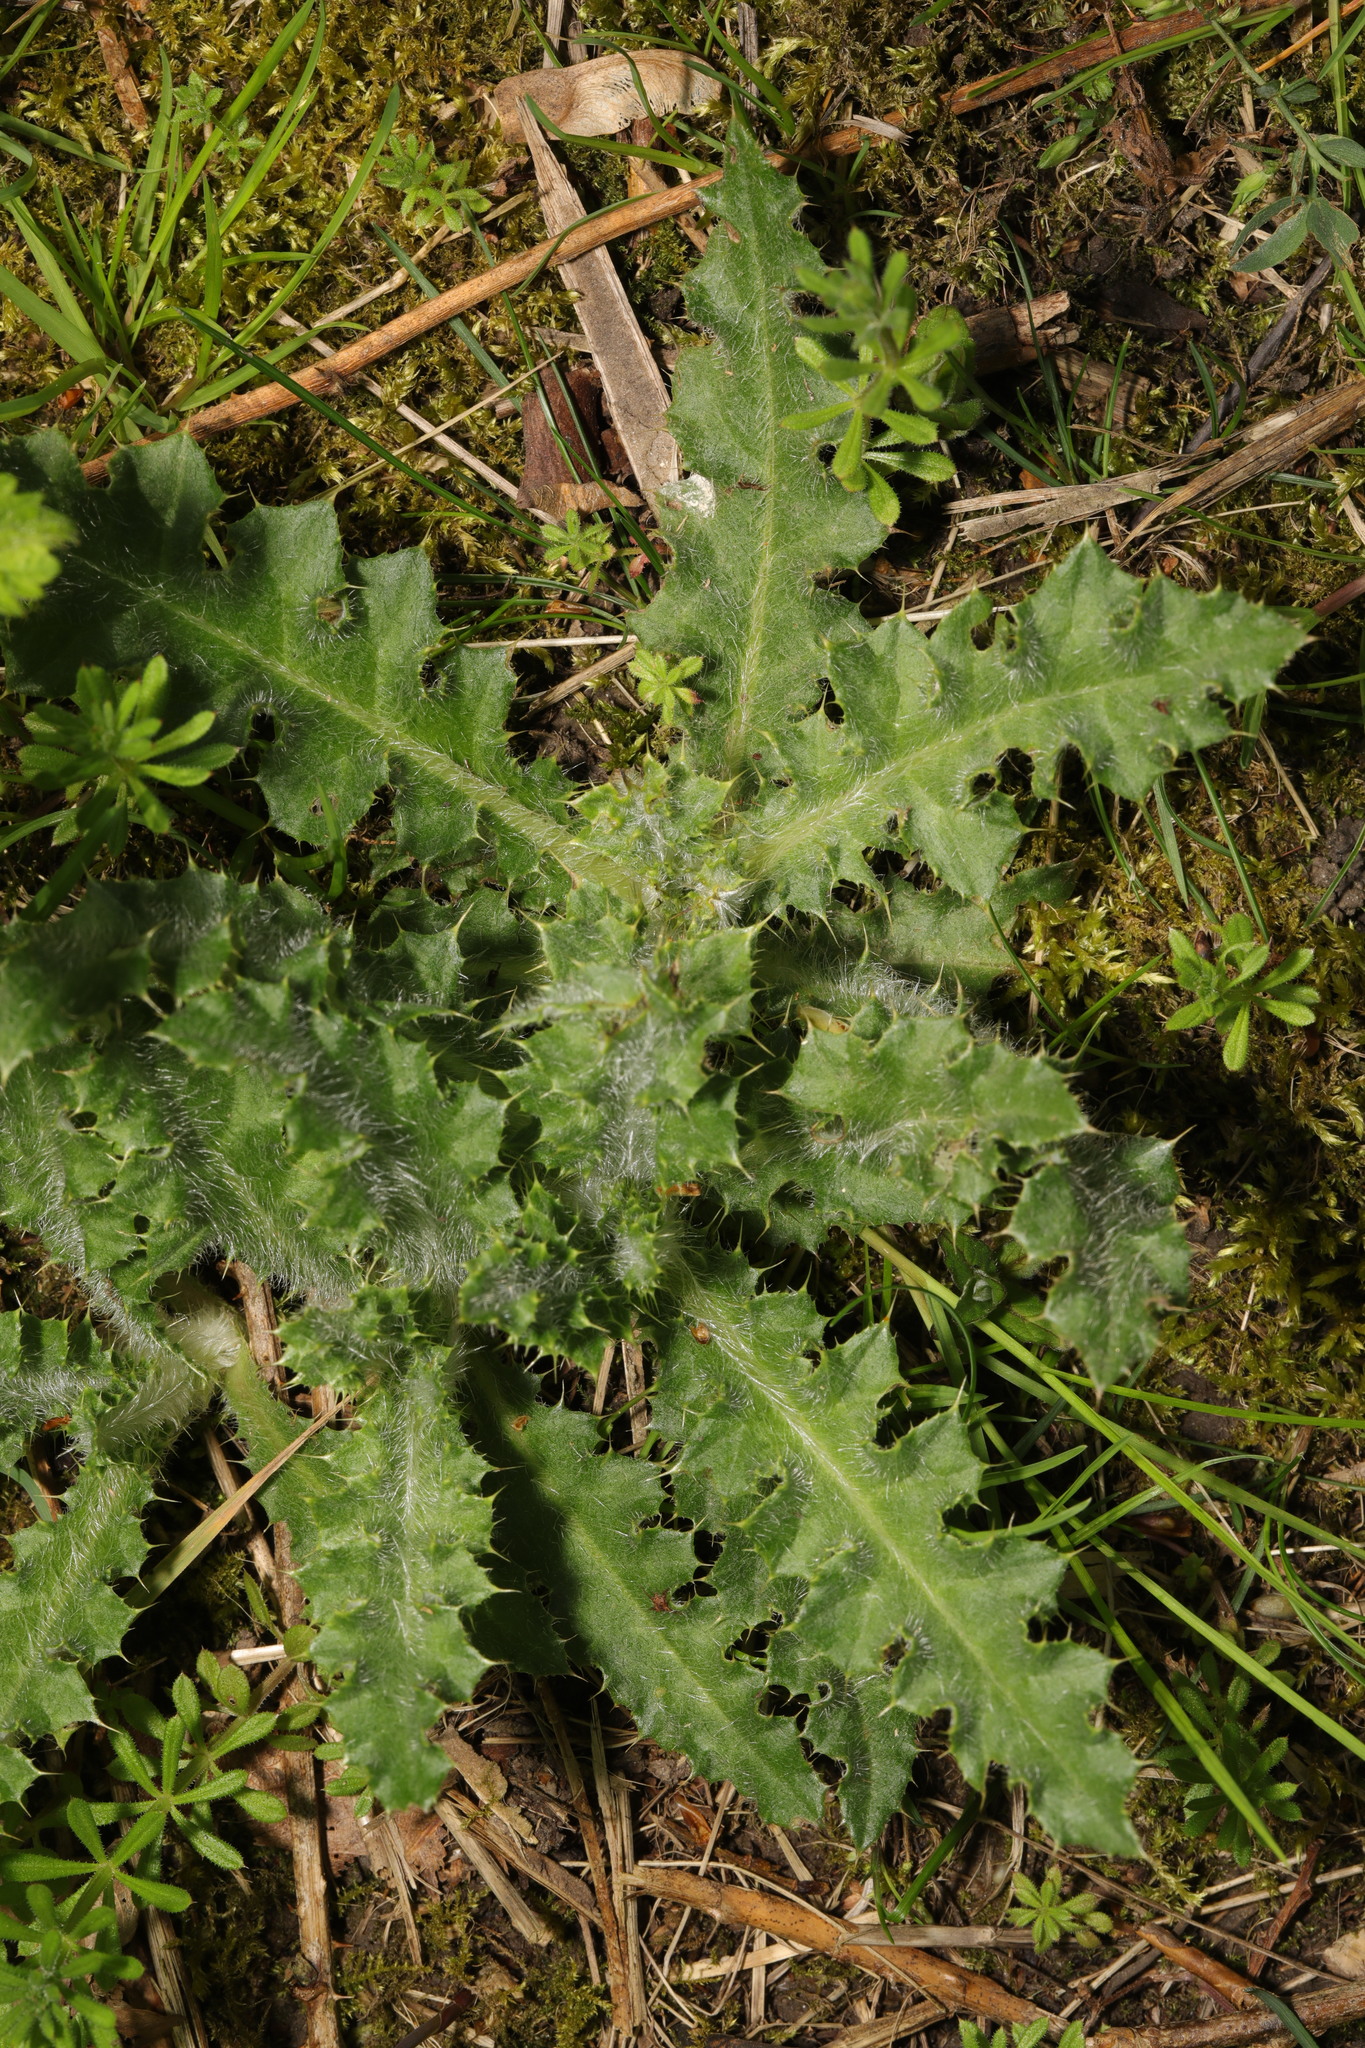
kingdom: Plantae
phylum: Tracheophyta
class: Magnoliopsida
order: Asterales
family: Asteraceae
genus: Cirsium
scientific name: Cirsium vulgare
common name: Bull thistle
